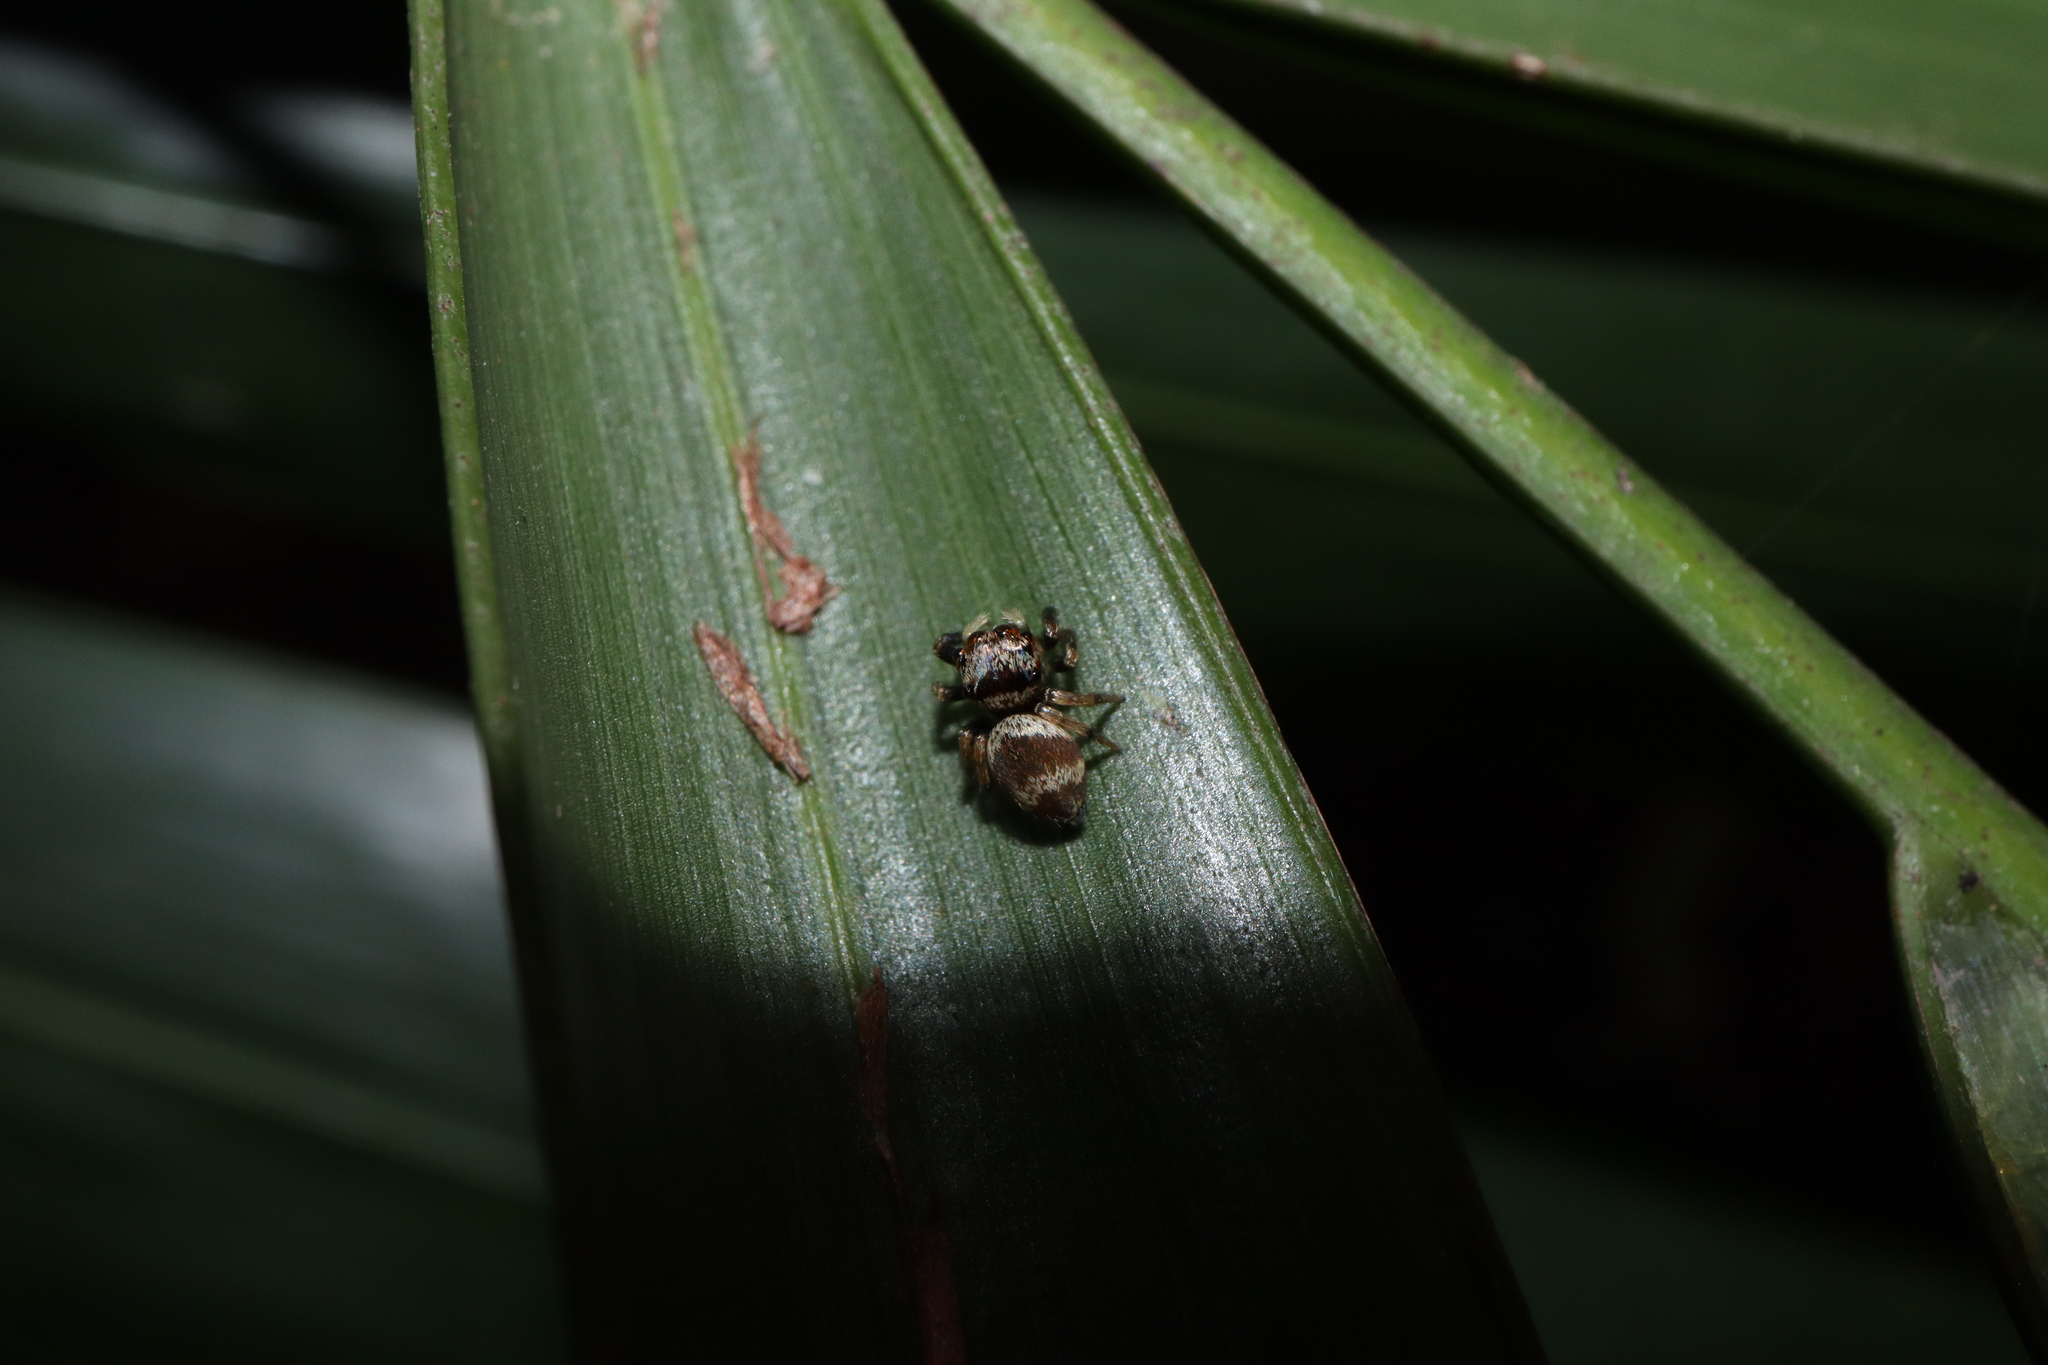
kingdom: Animalia
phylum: Arthropoda
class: Arachnida
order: Araneae
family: Salticidae
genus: Euryattus
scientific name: Euryattus bleekeri
